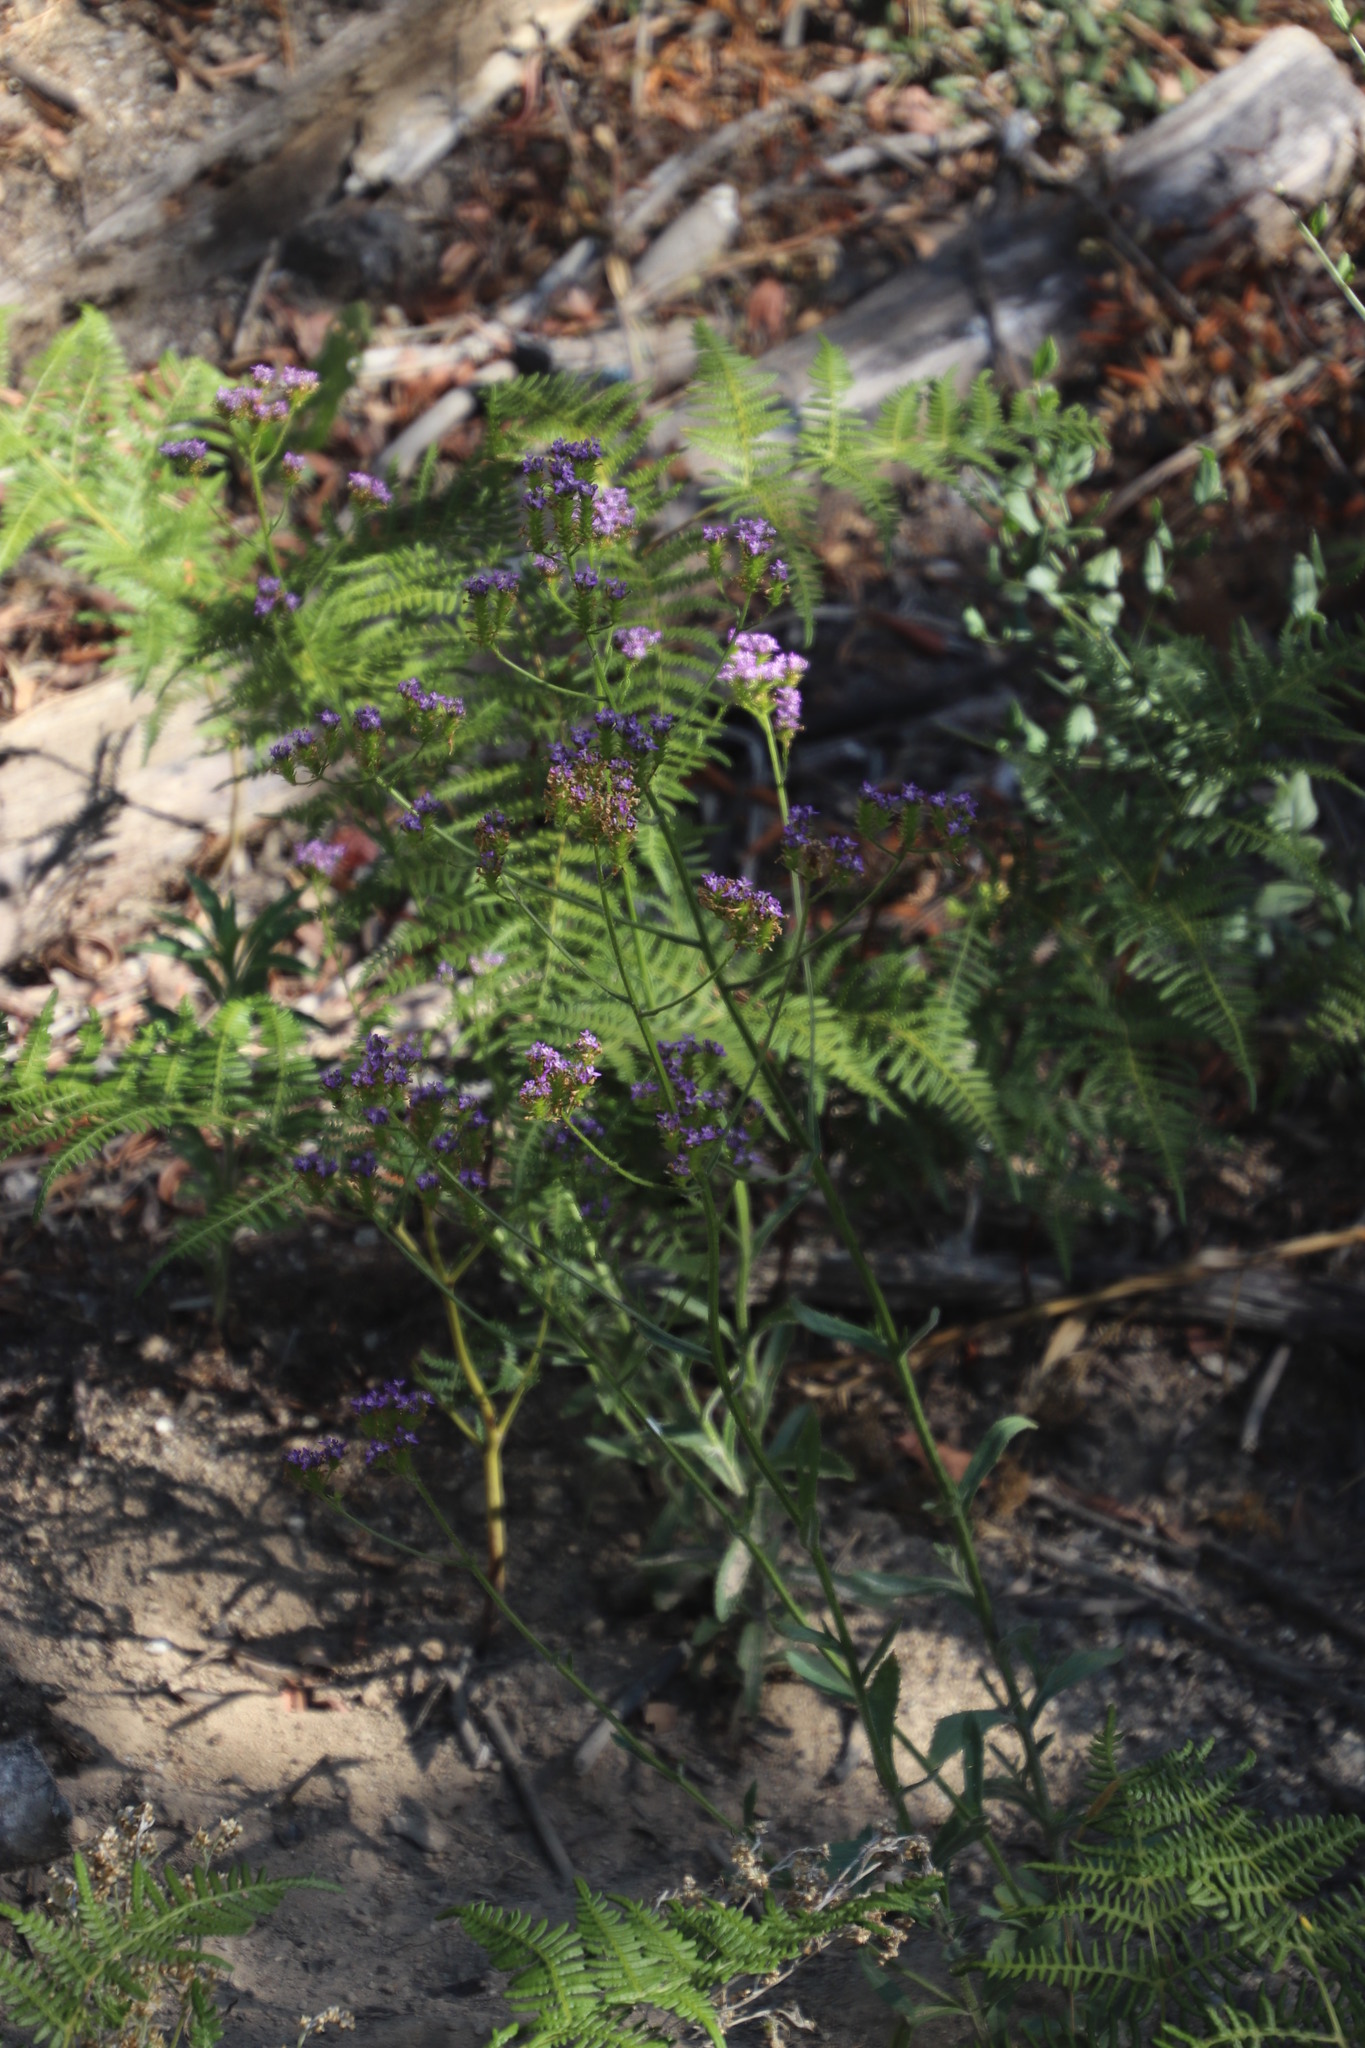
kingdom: Plantae
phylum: Tracheophyta
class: Magnoliopsida
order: Lamiales
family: Scrophulariaceae
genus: Pseudoselago
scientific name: Pseudoselago ascendens
